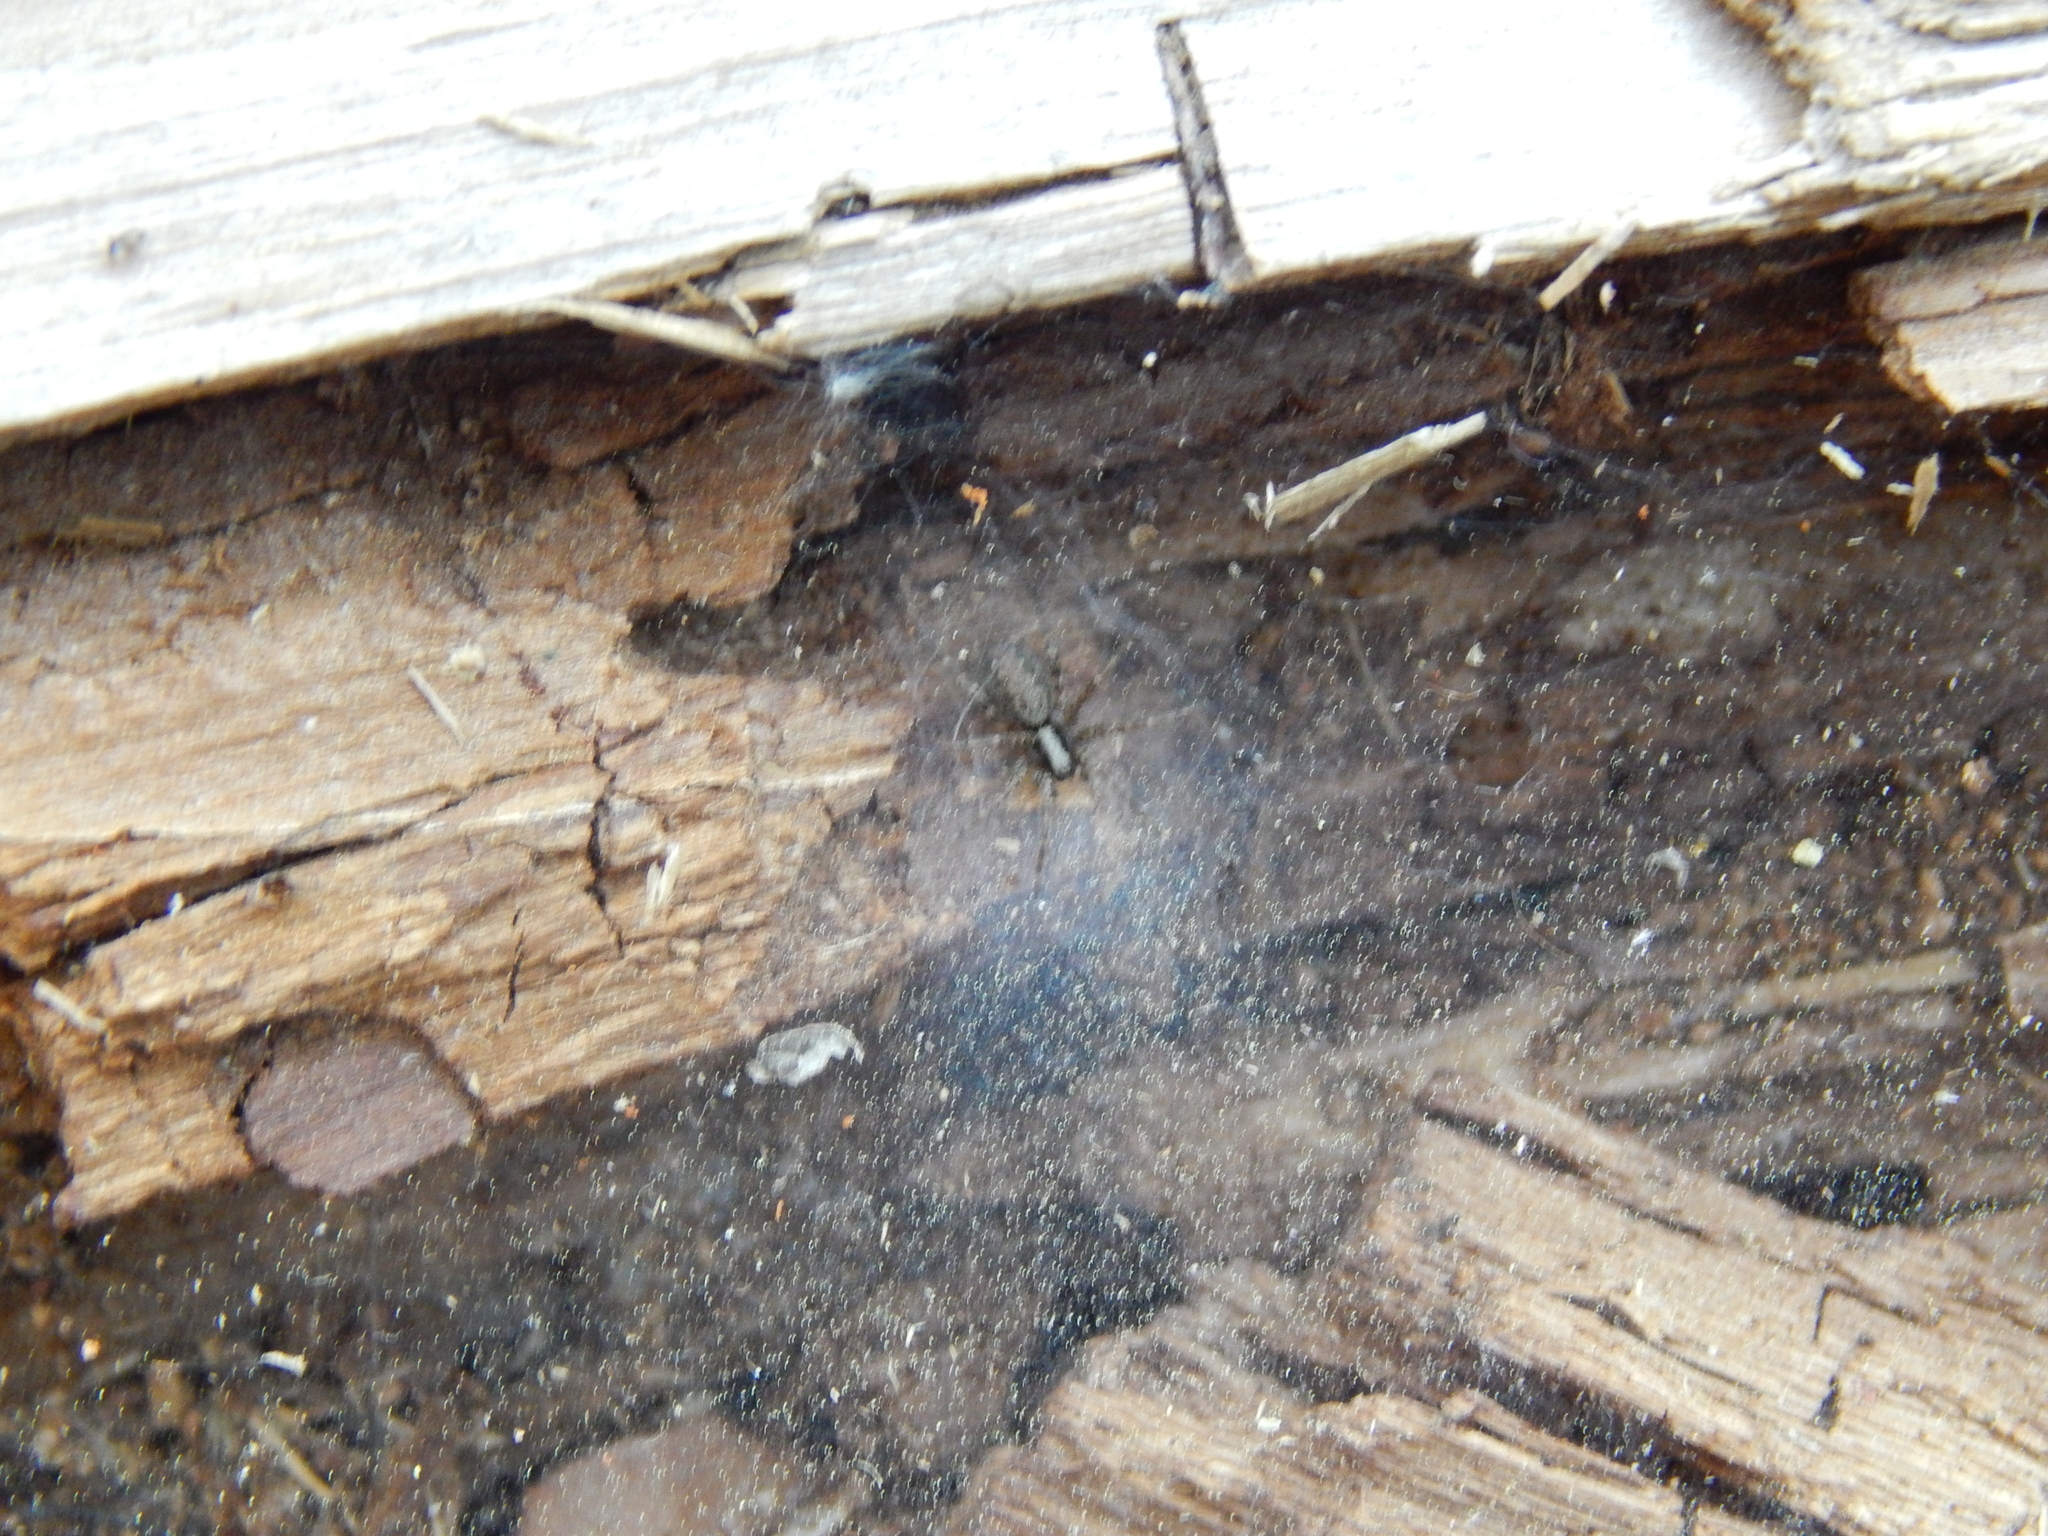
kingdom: Animalia
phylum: Arthropoda
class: Arachnida
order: Araneae
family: Agelenidae
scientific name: Agelenidae
